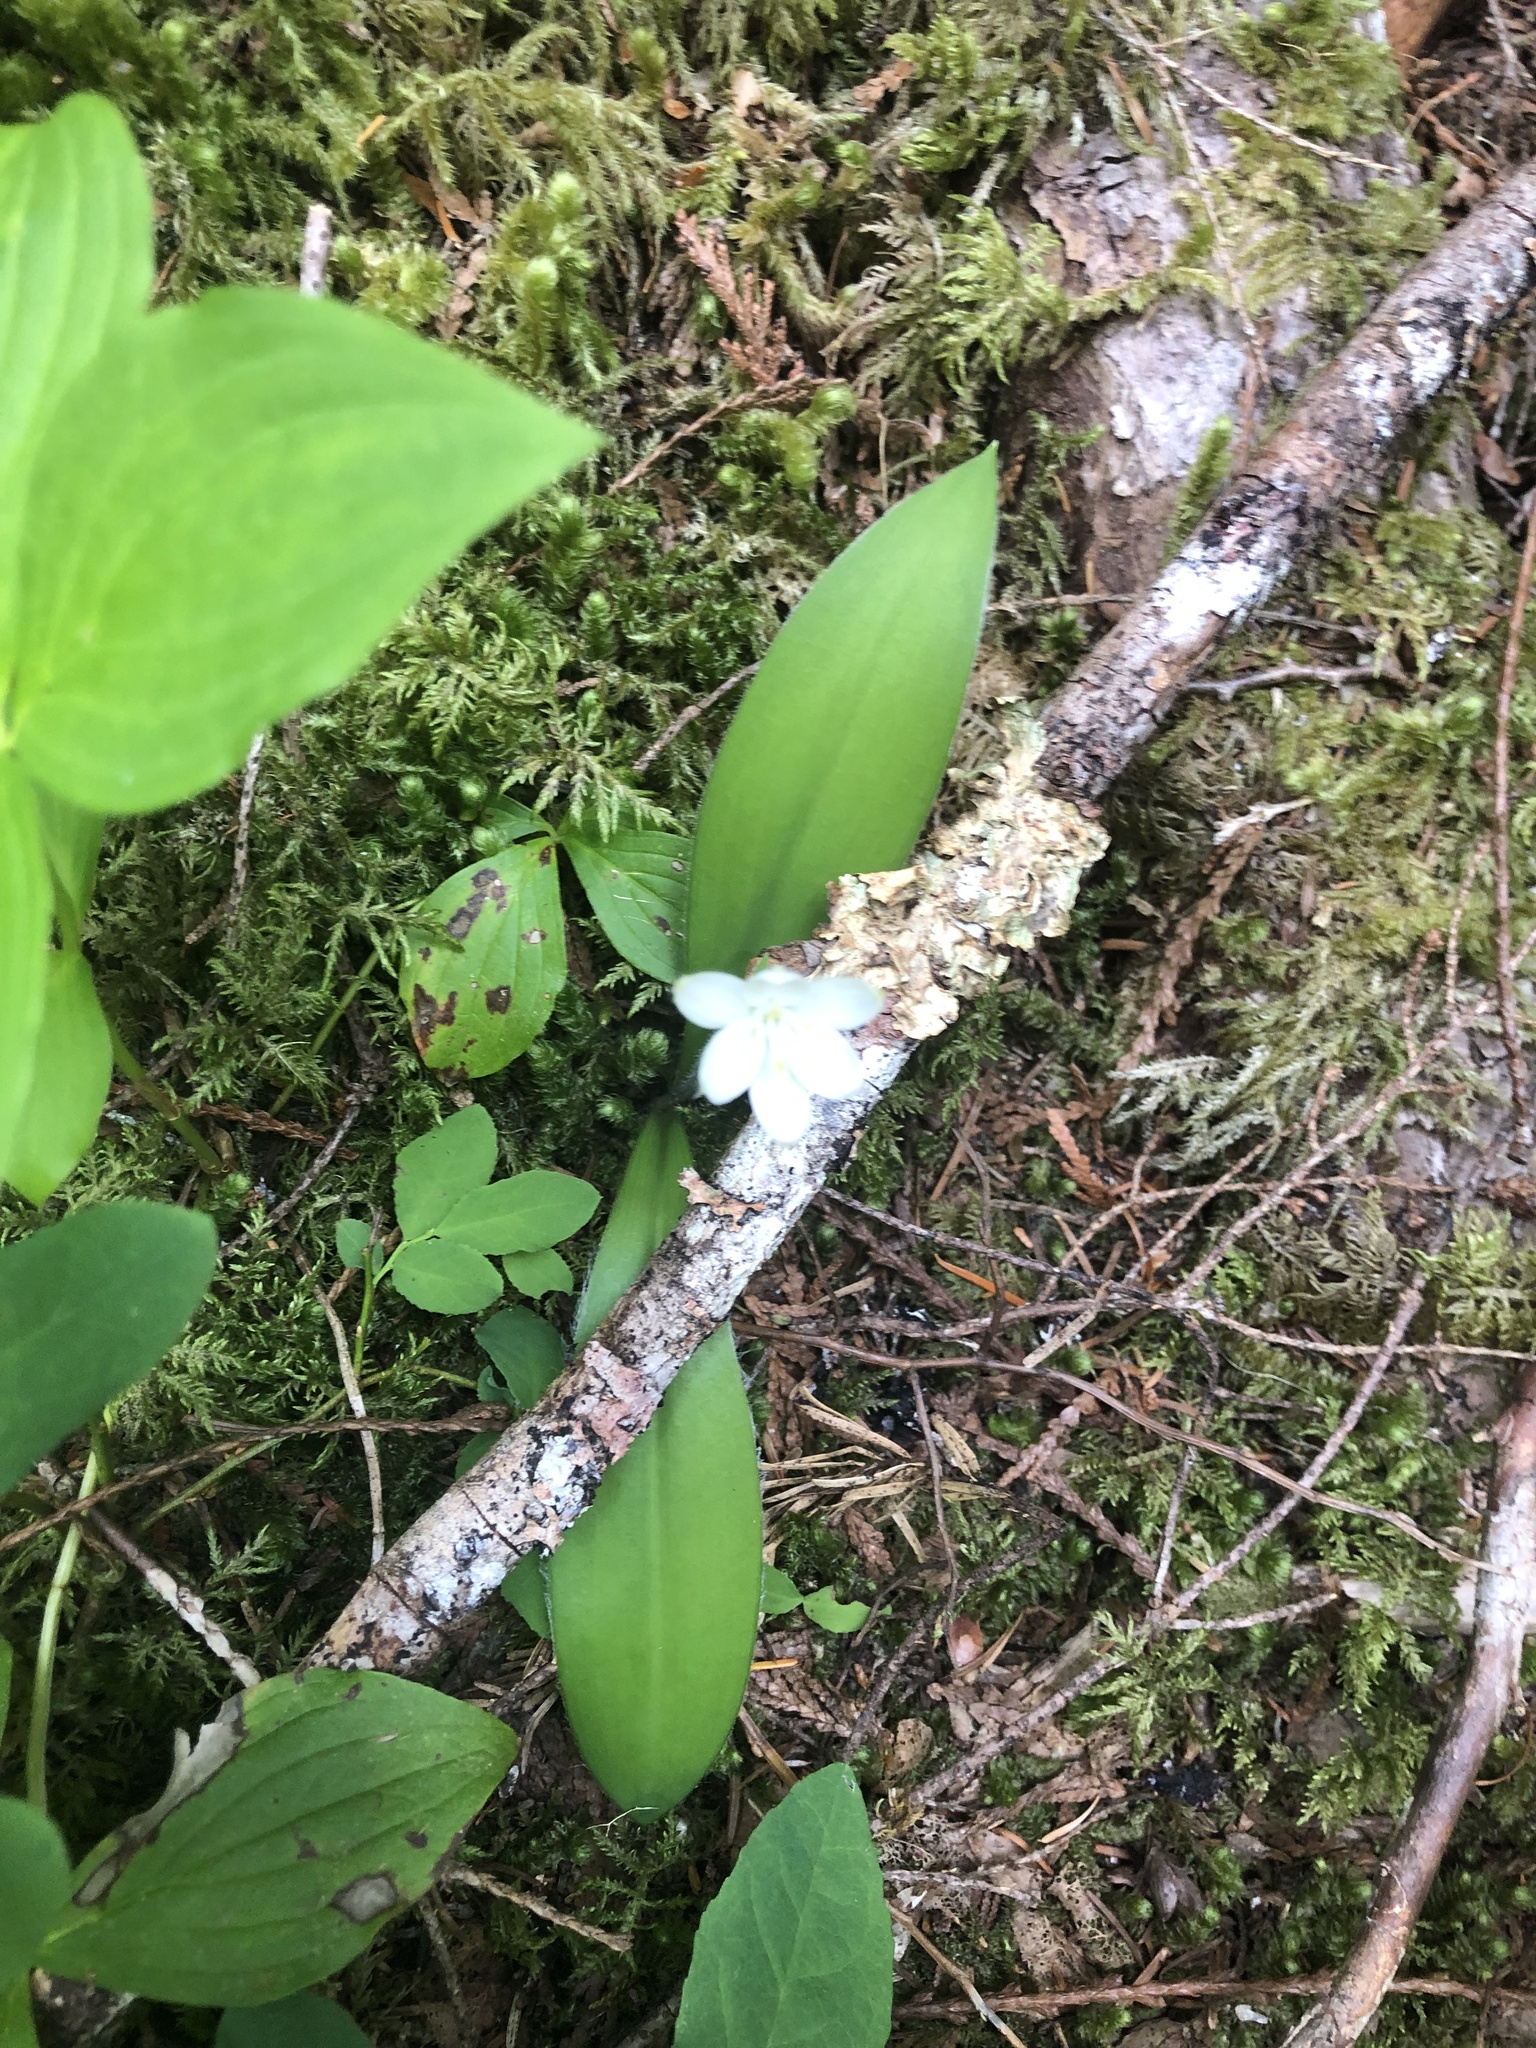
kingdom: Plantae
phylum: Tracheophyta
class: Liliopsida
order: Liliales
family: Liliaceae
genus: Clintonia
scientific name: Clintonia uniflora
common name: Queen's cup
